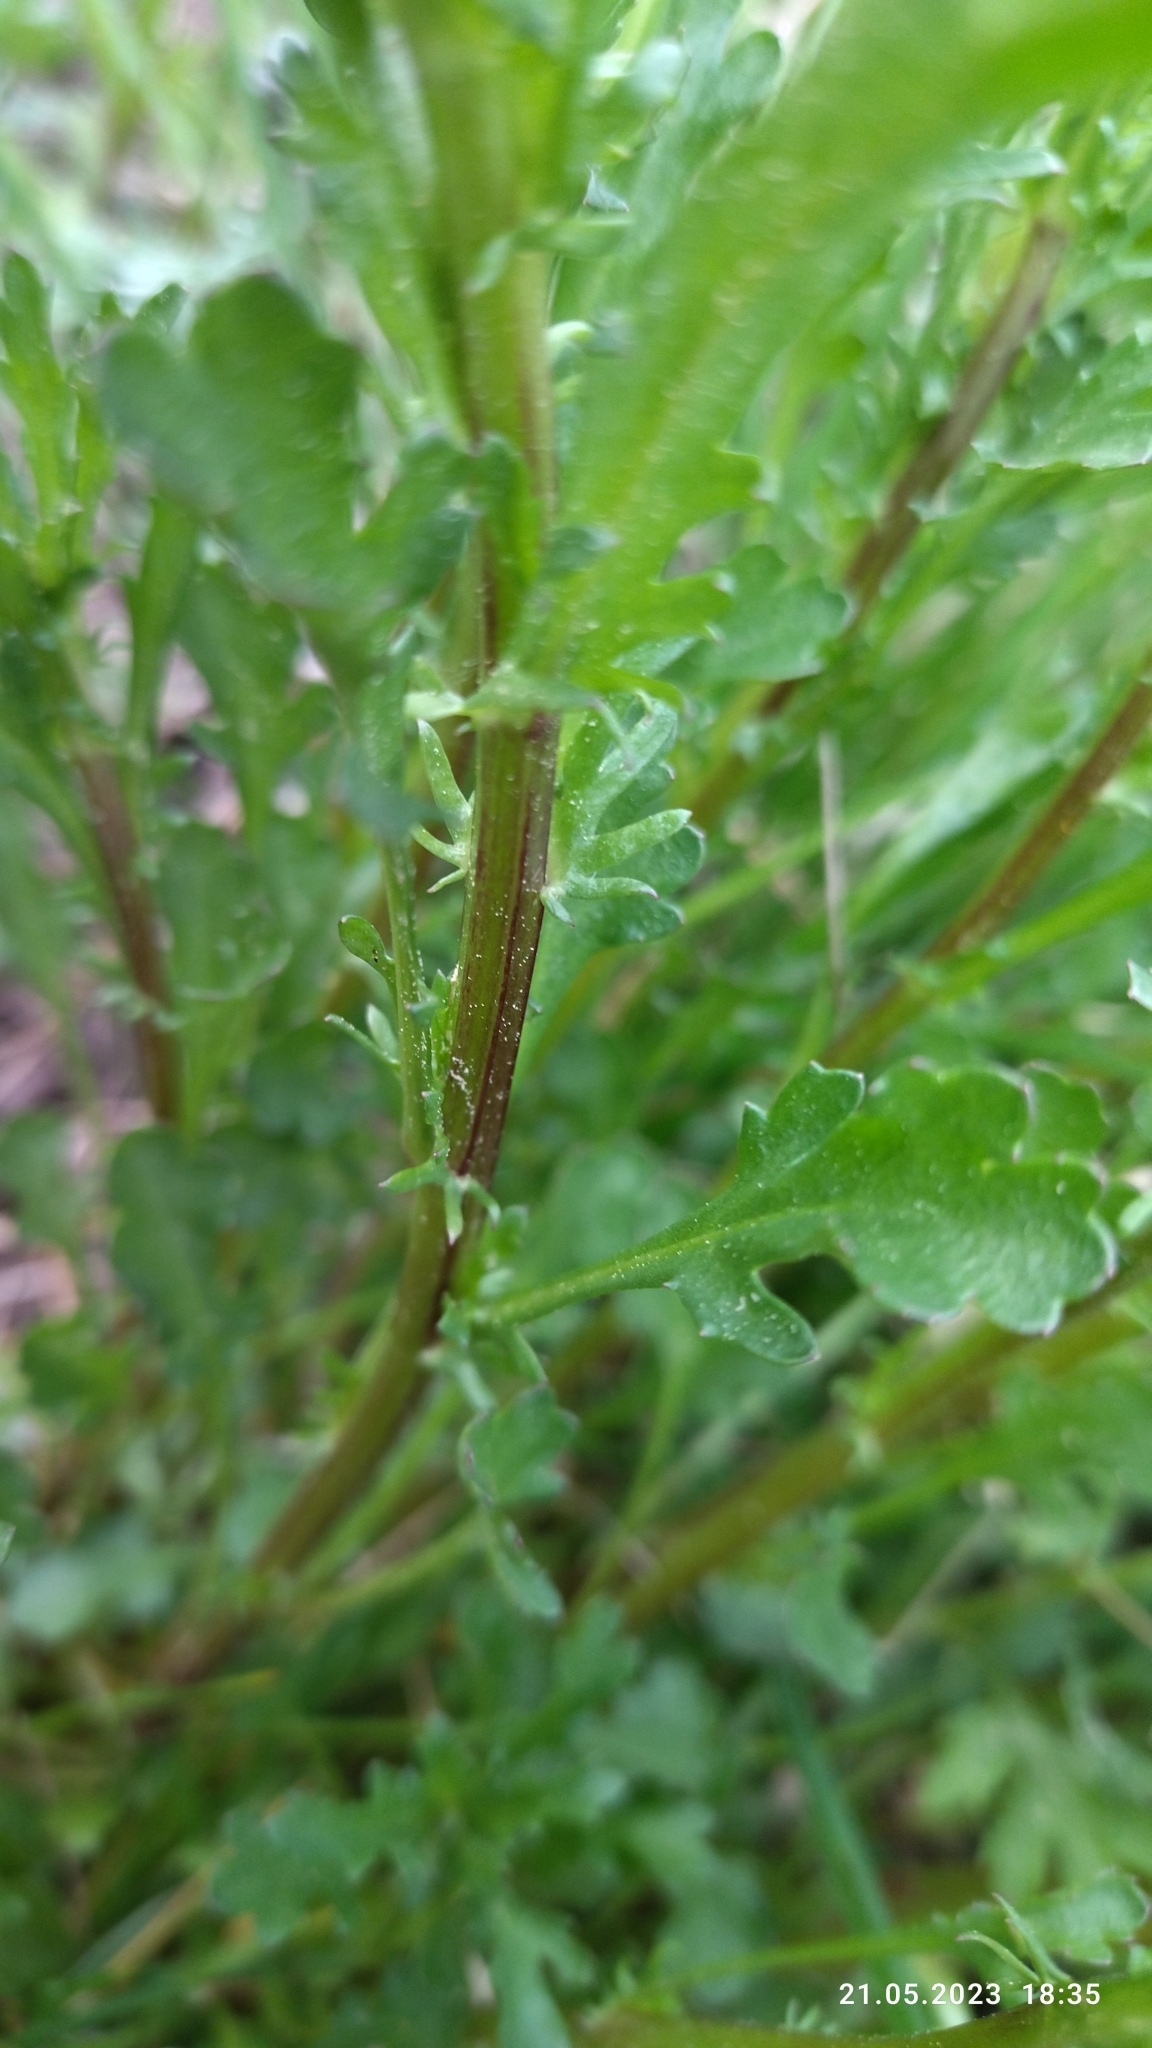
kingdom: Plantae
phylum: Tracheophyta
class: Magnoliopsida
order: Asterales
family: Asteraceae
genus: Leucanthemum
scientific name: Leucanthemum vulgare
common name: Oxeye daisy
